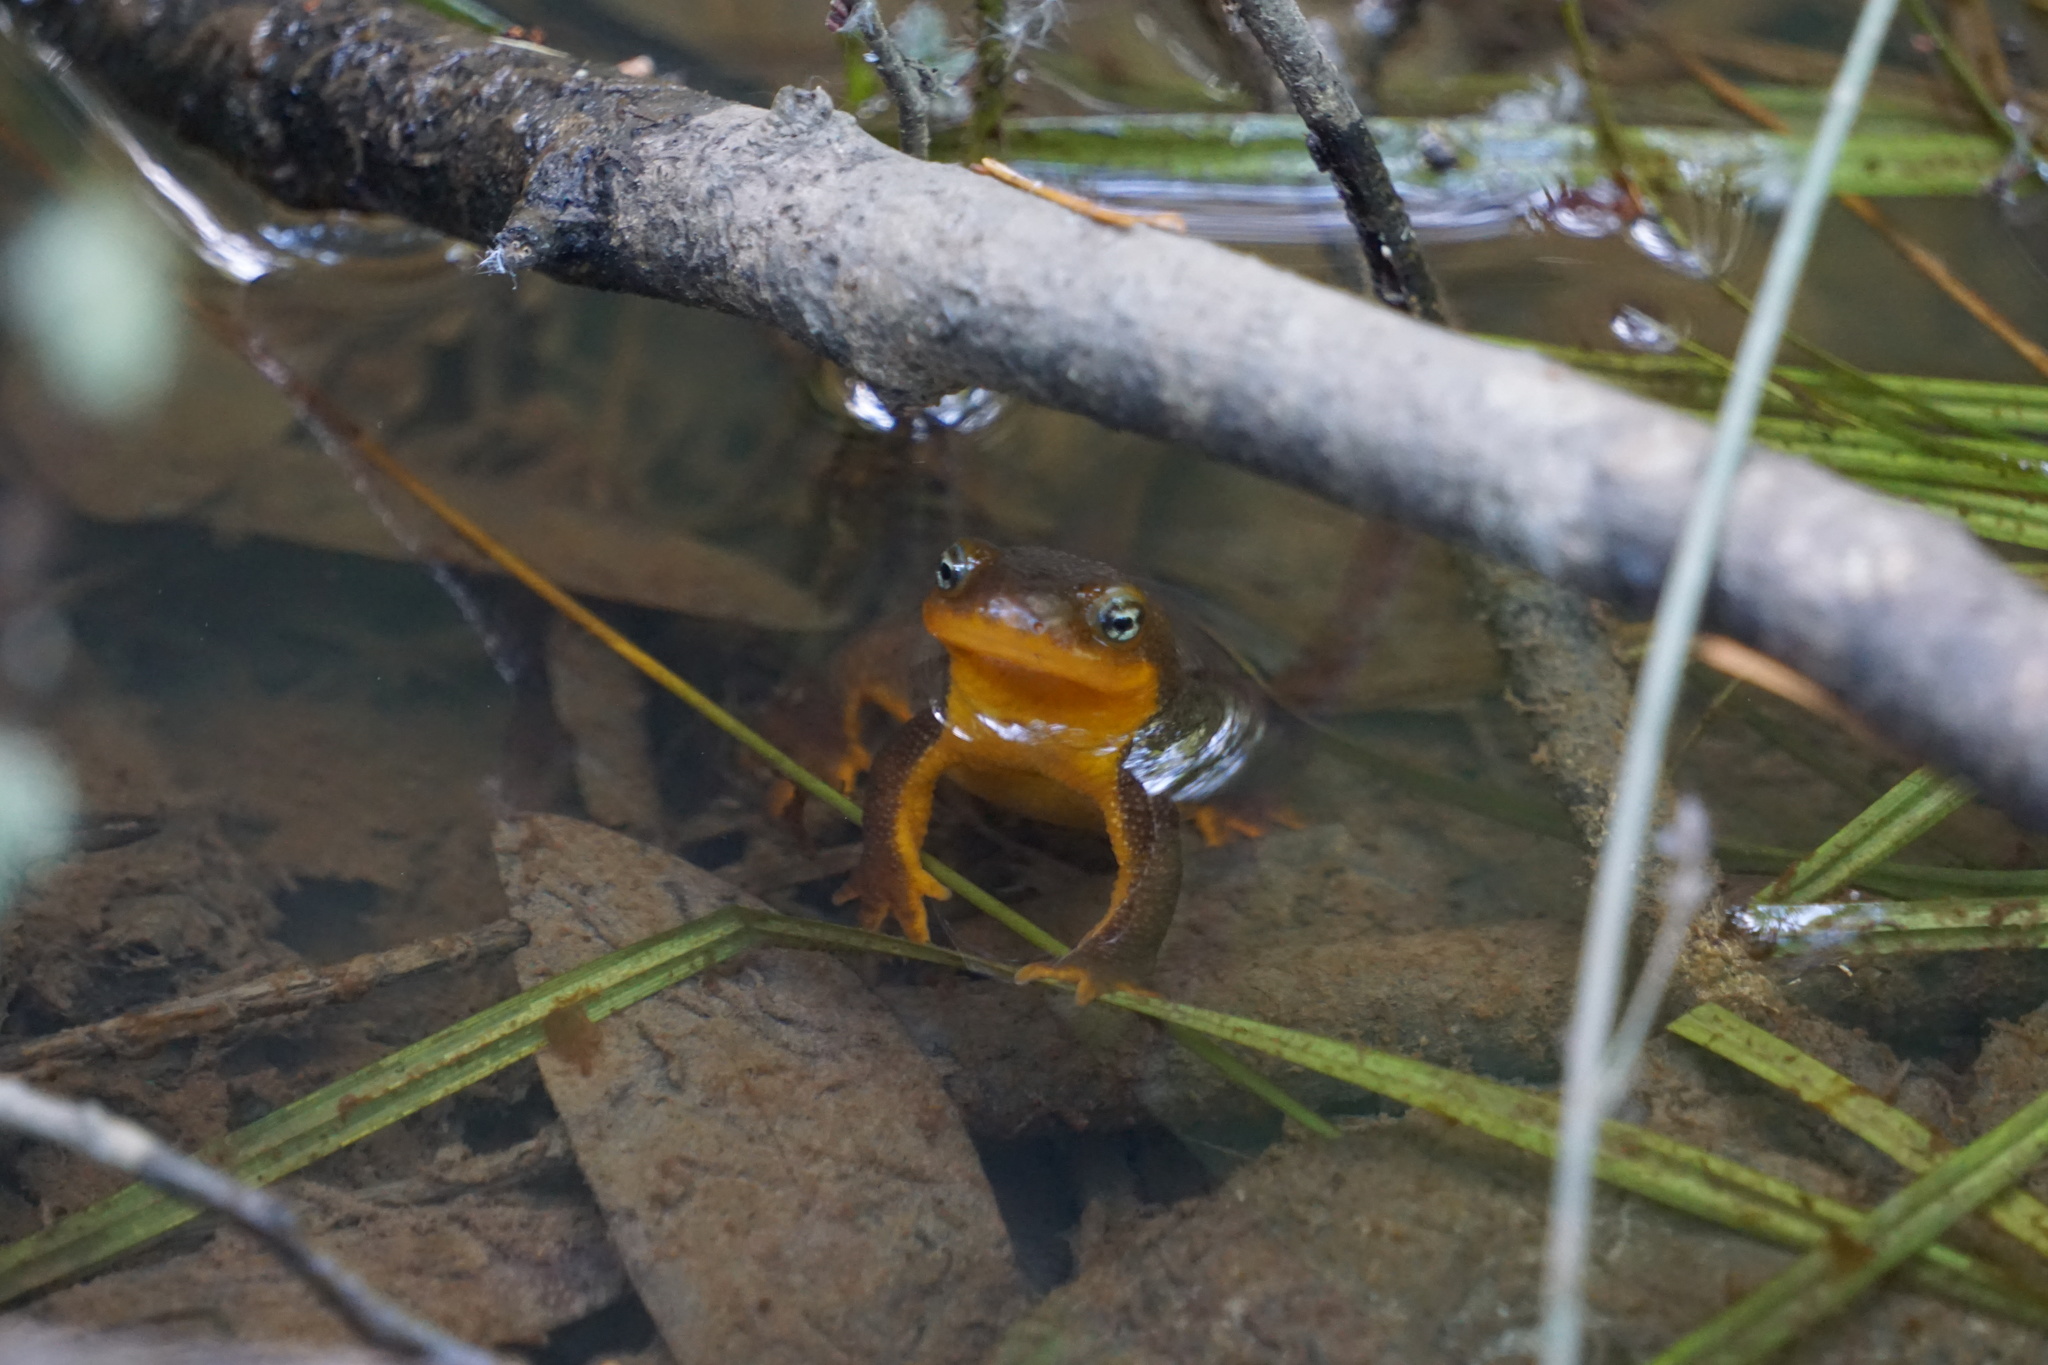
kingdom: Animalia
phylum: Chordata
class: Amphibia
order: Caudata
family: Salamandridae
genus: Taricha
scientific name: Taricha granulosa
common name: Roughskin newt
